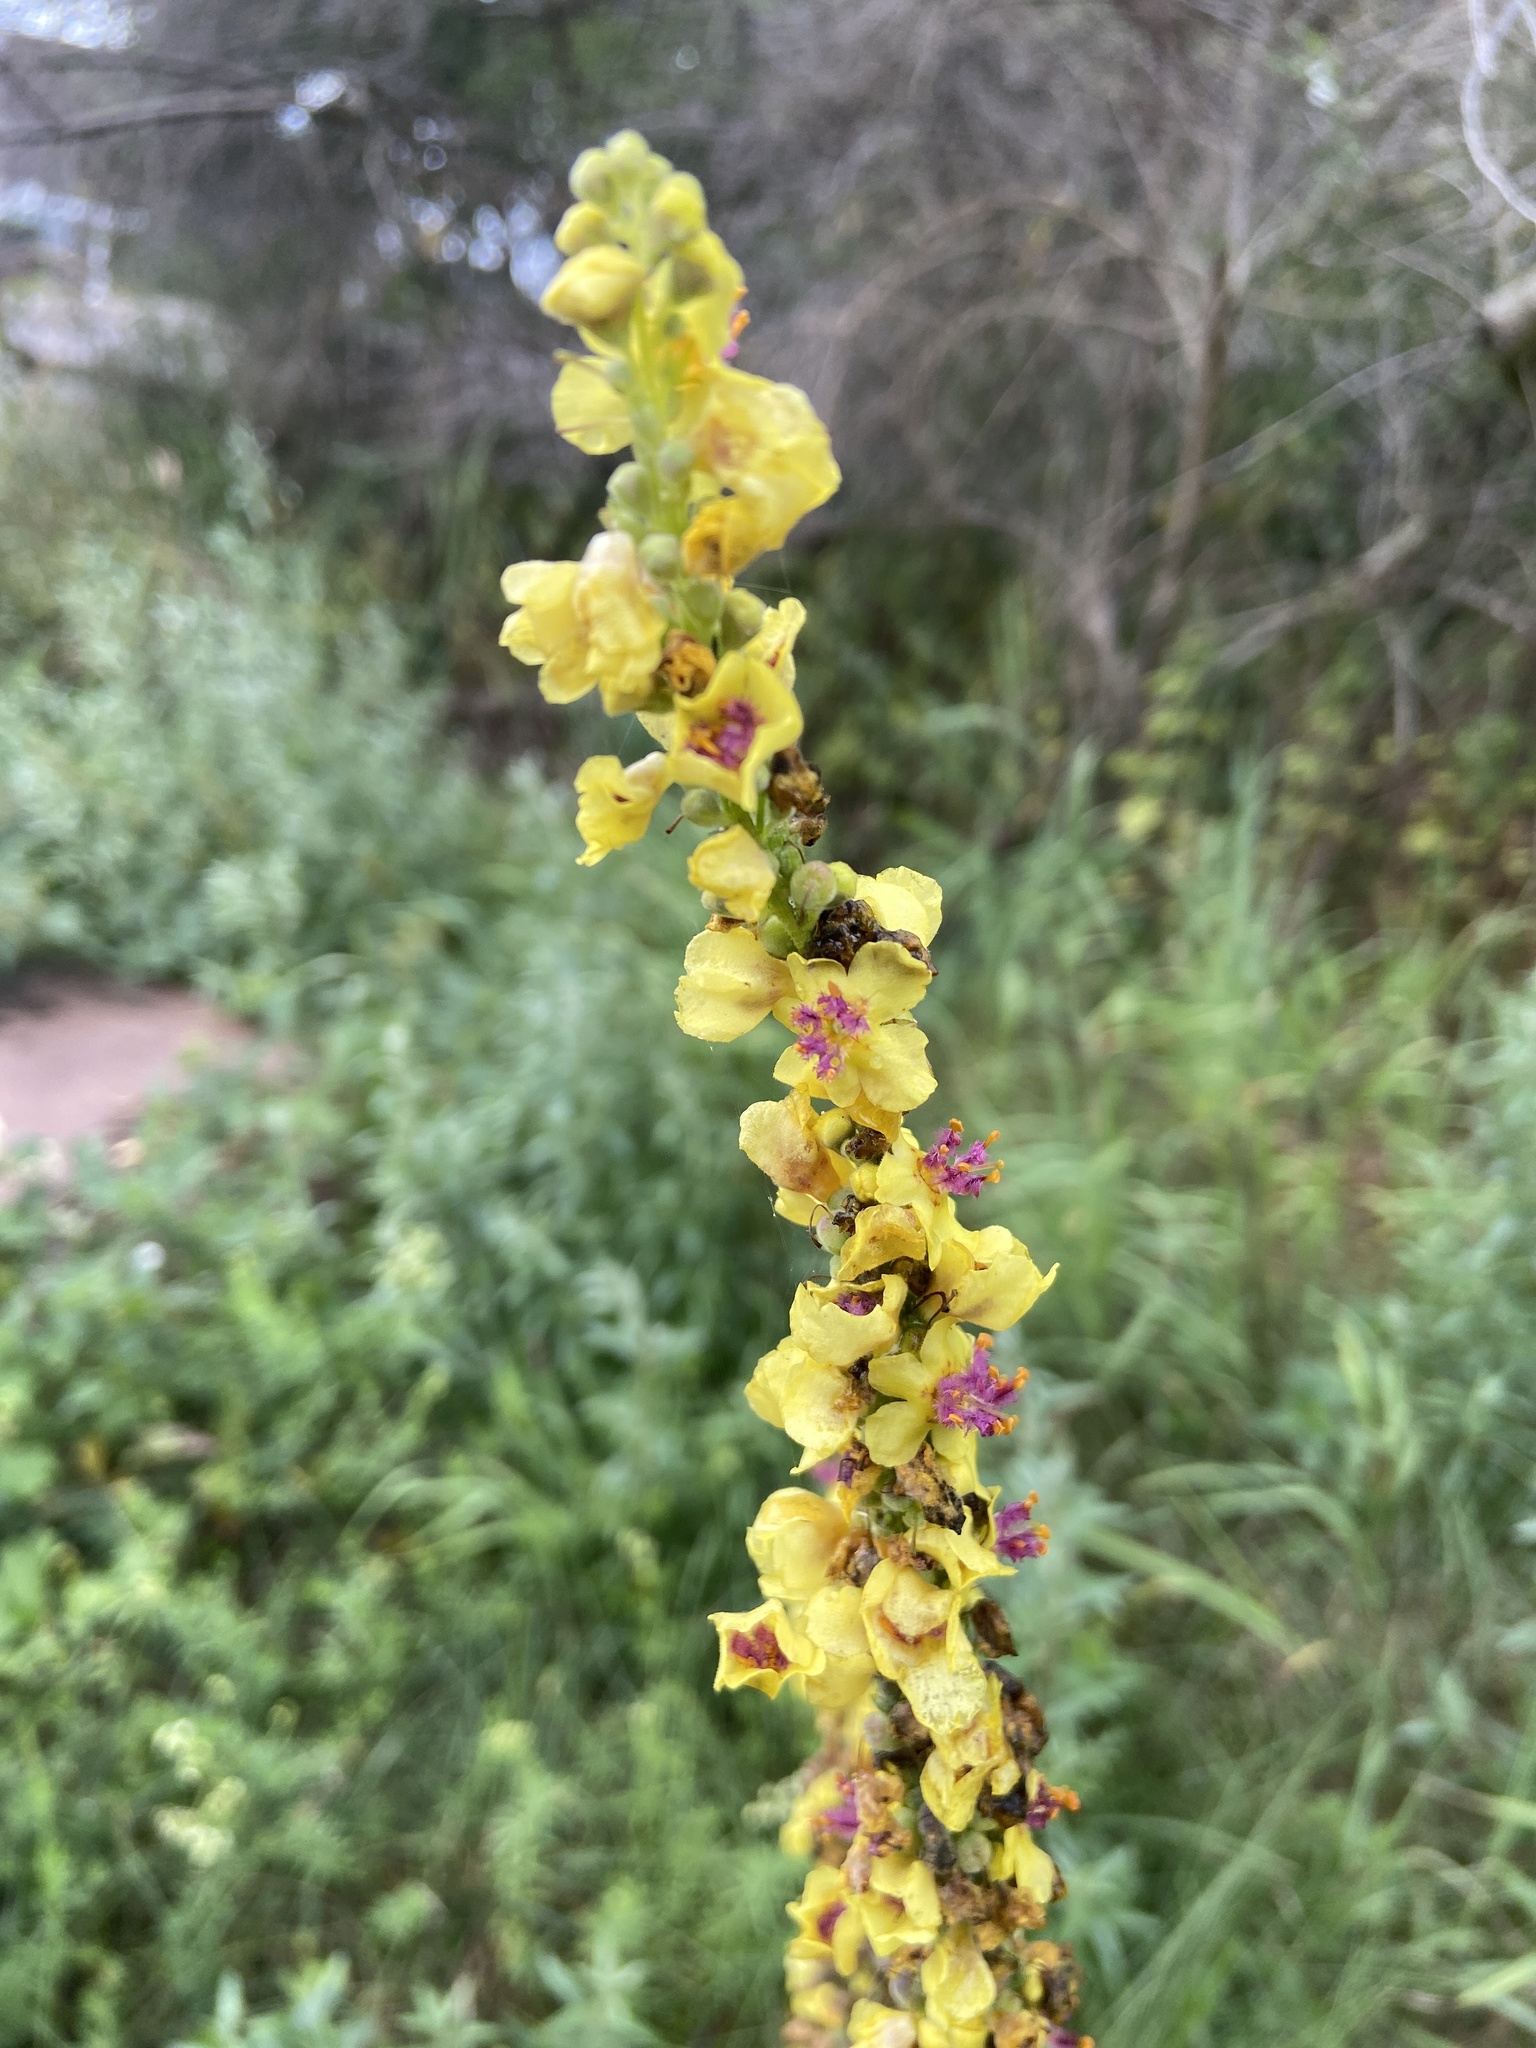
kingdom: Plantae
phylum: Tracheophyta
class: Magnoliopsida
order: Lamiales
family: Scrophulariaceae
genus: Verbascum
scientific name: Verbascum nigrum
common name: Dark mullein
